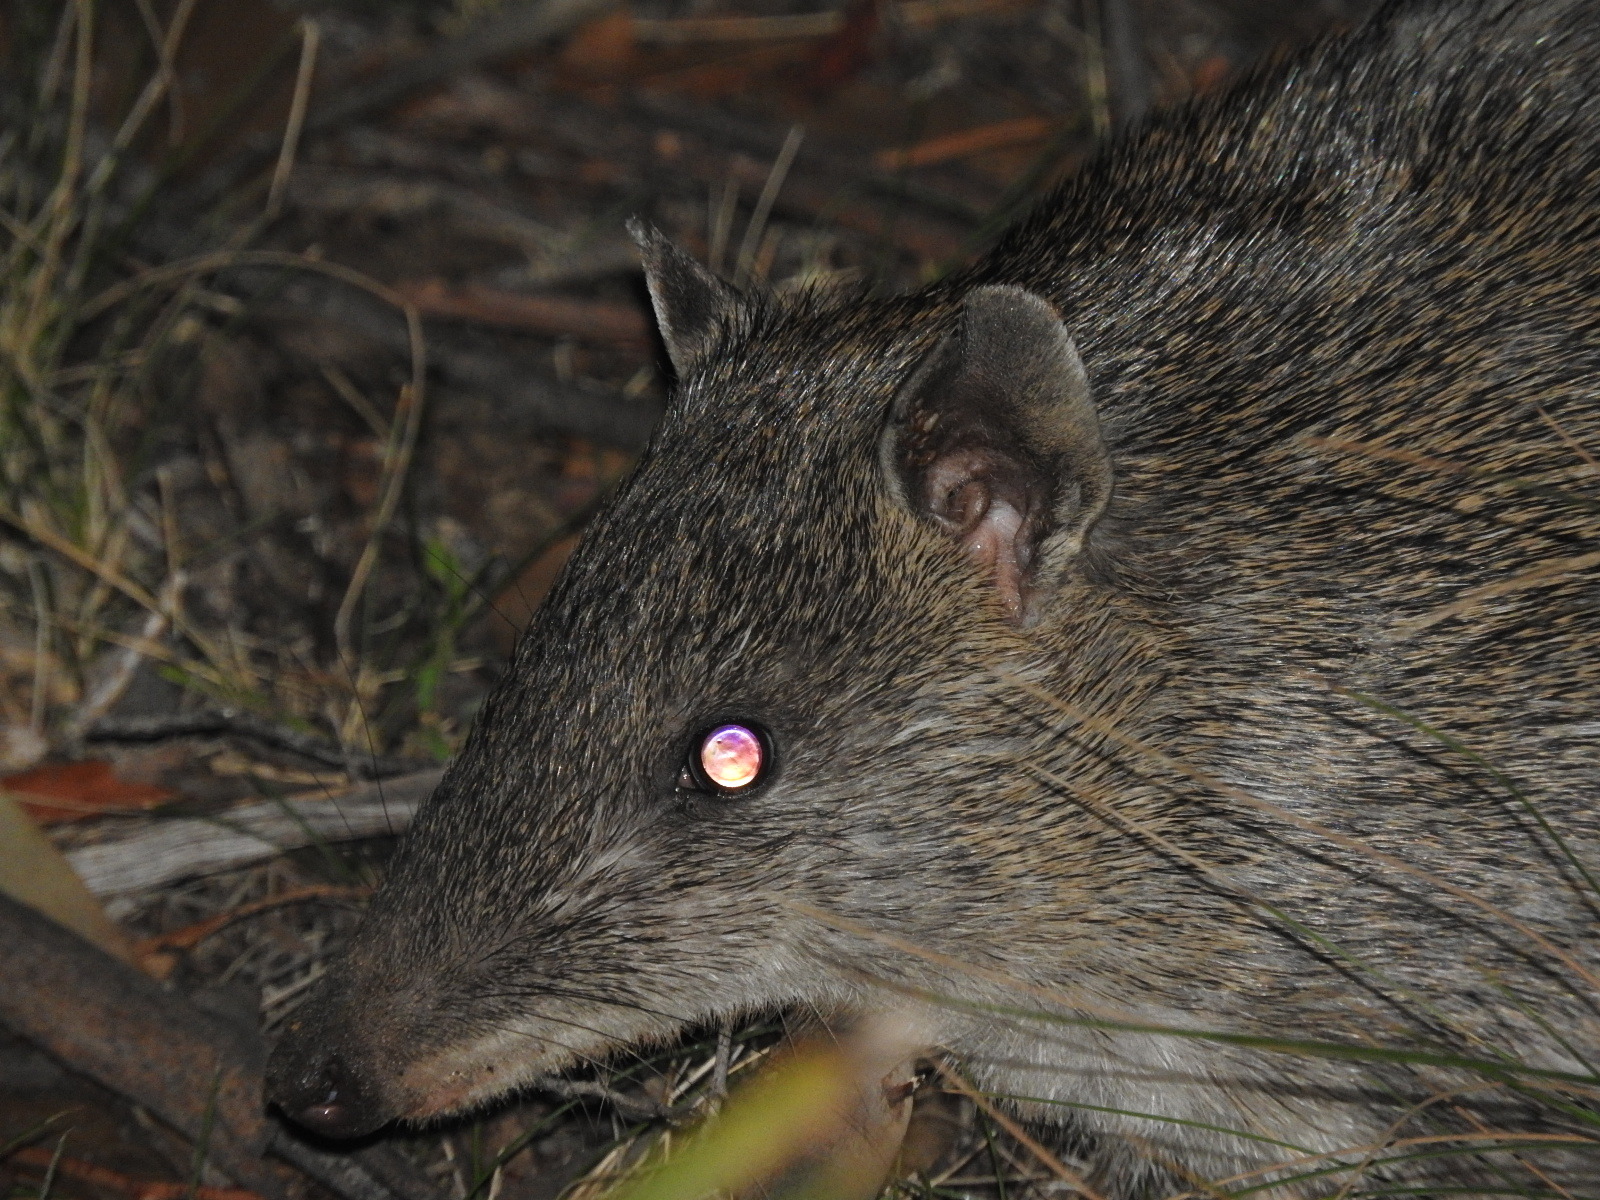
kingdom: Animalia
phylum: Chordata
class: Mammalia
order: Peramelemorphia
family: Peramelidae
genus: Isoodon
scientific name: Isoodon obesulus
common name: Southern brown bandicoot
